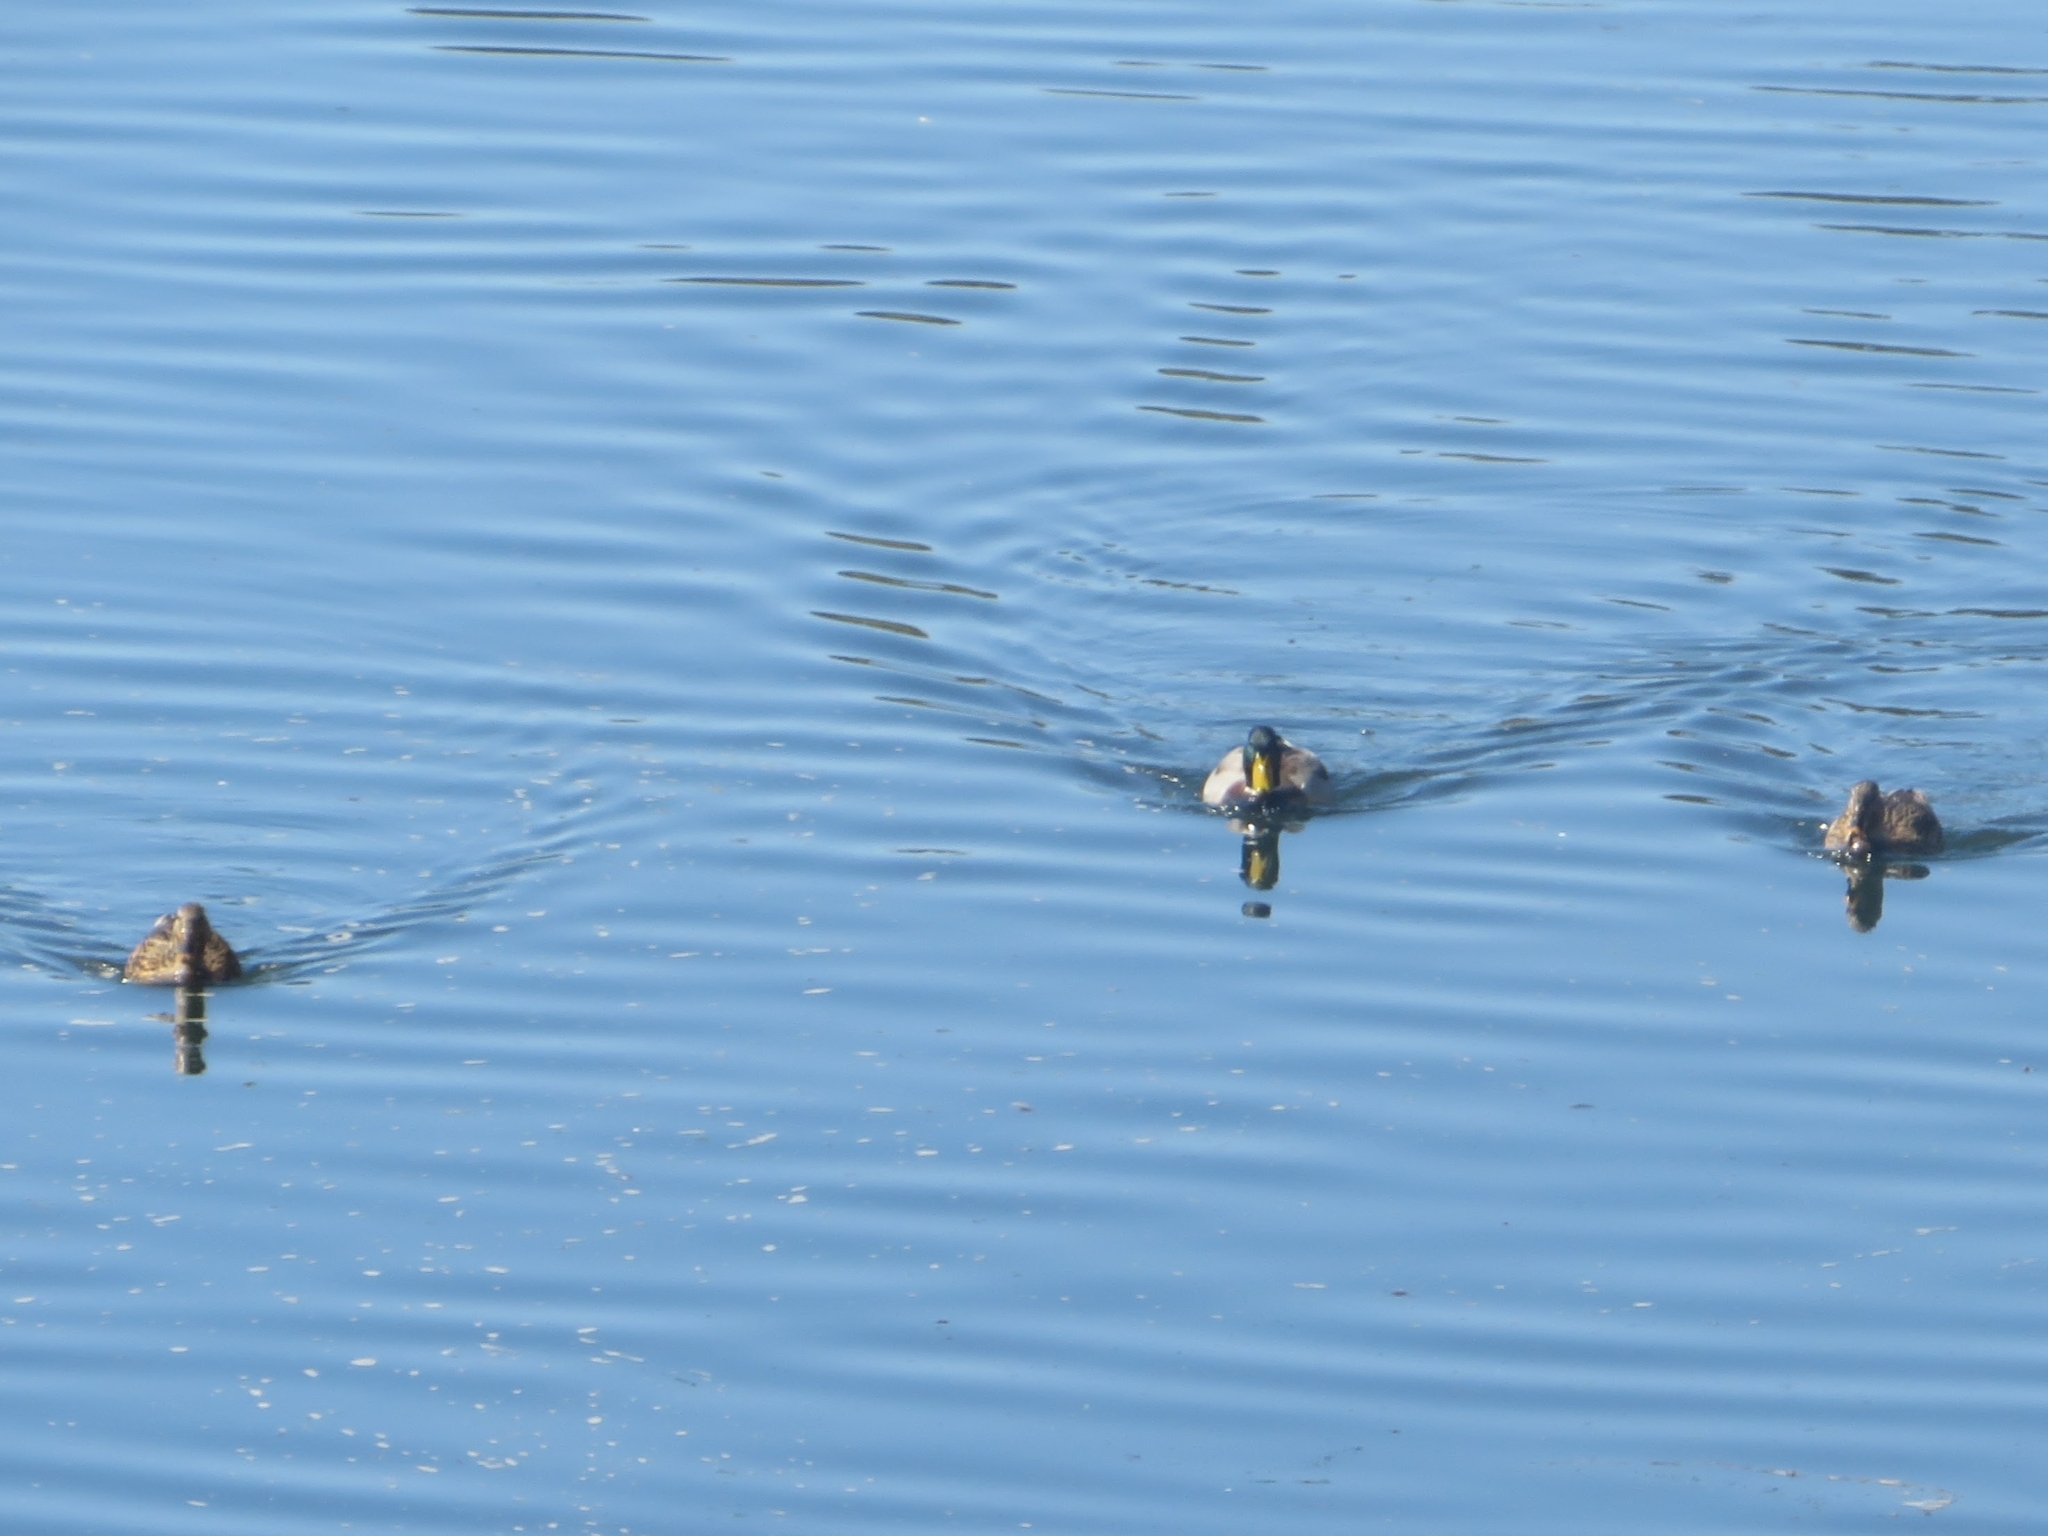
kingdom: Animalia
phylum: Chordata
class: Aves
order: Anseriformes
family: Anatidae
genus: Anas
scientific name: Anas platyrhynchos
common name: Mallard
